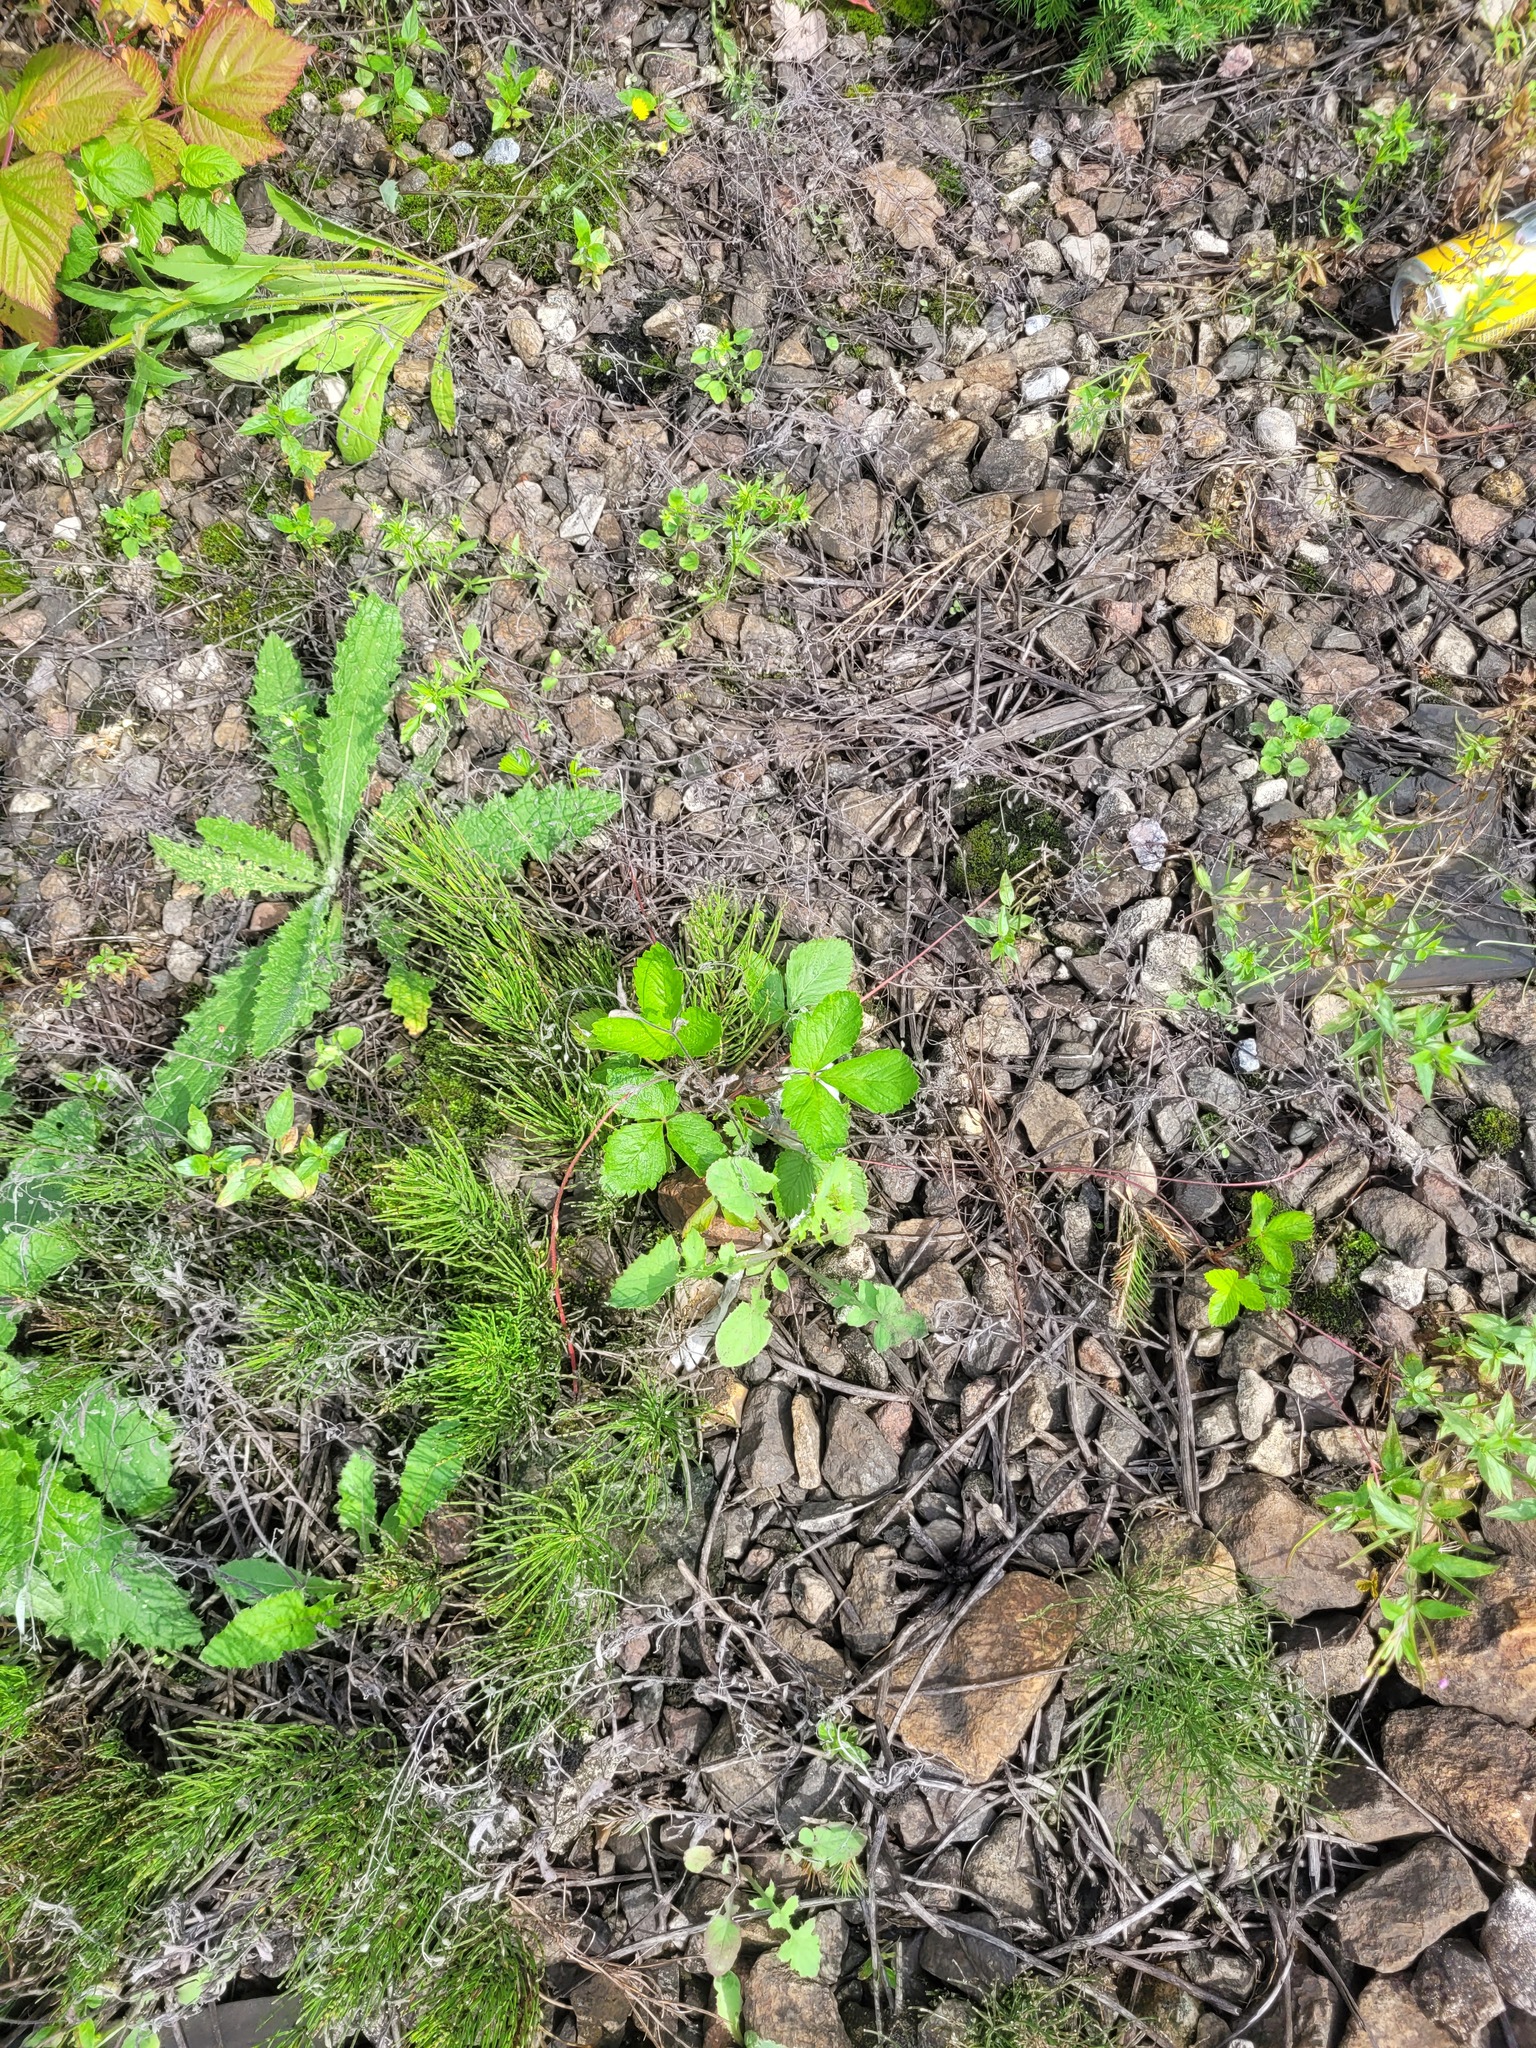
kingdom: Plantae
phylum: Tracheophyta
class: Magnoliopsida
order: Asterales
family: Asteraceae
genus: Sonchus
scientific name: Sonchus oleraceus
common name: Common sowthistle
